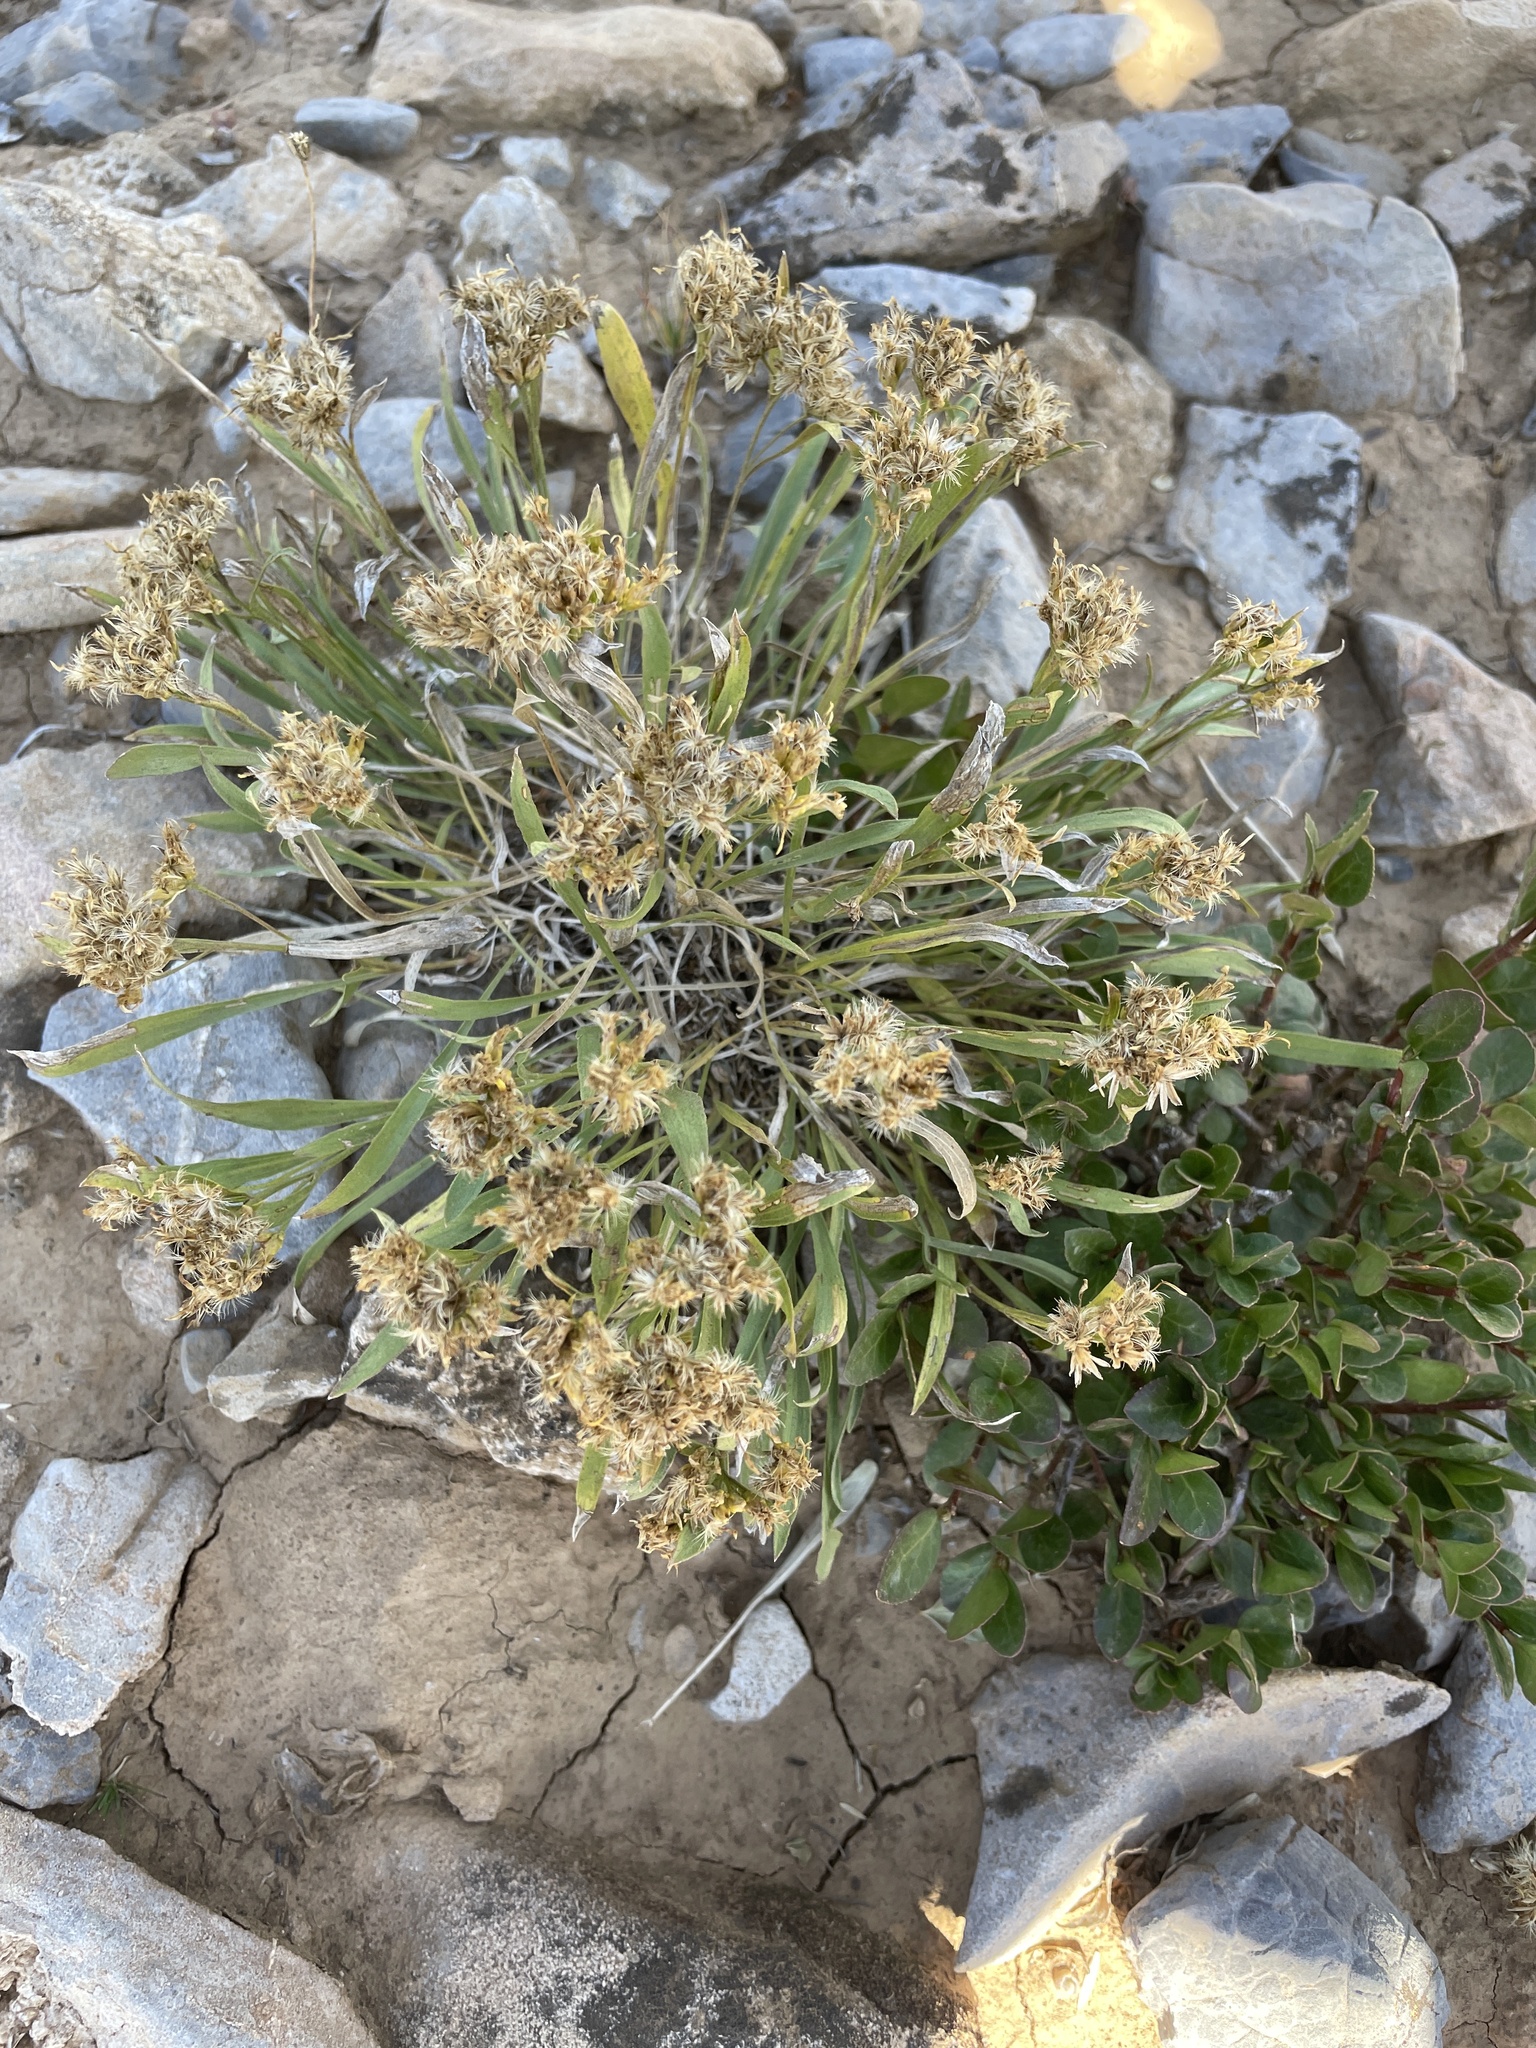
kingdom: Plantae
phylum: Tracheophyta
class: Magnoliopsida
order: Asterales
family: Asteraceae
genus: Petradoria
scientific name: Petradoria pumila
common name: Rock-goldenrod
